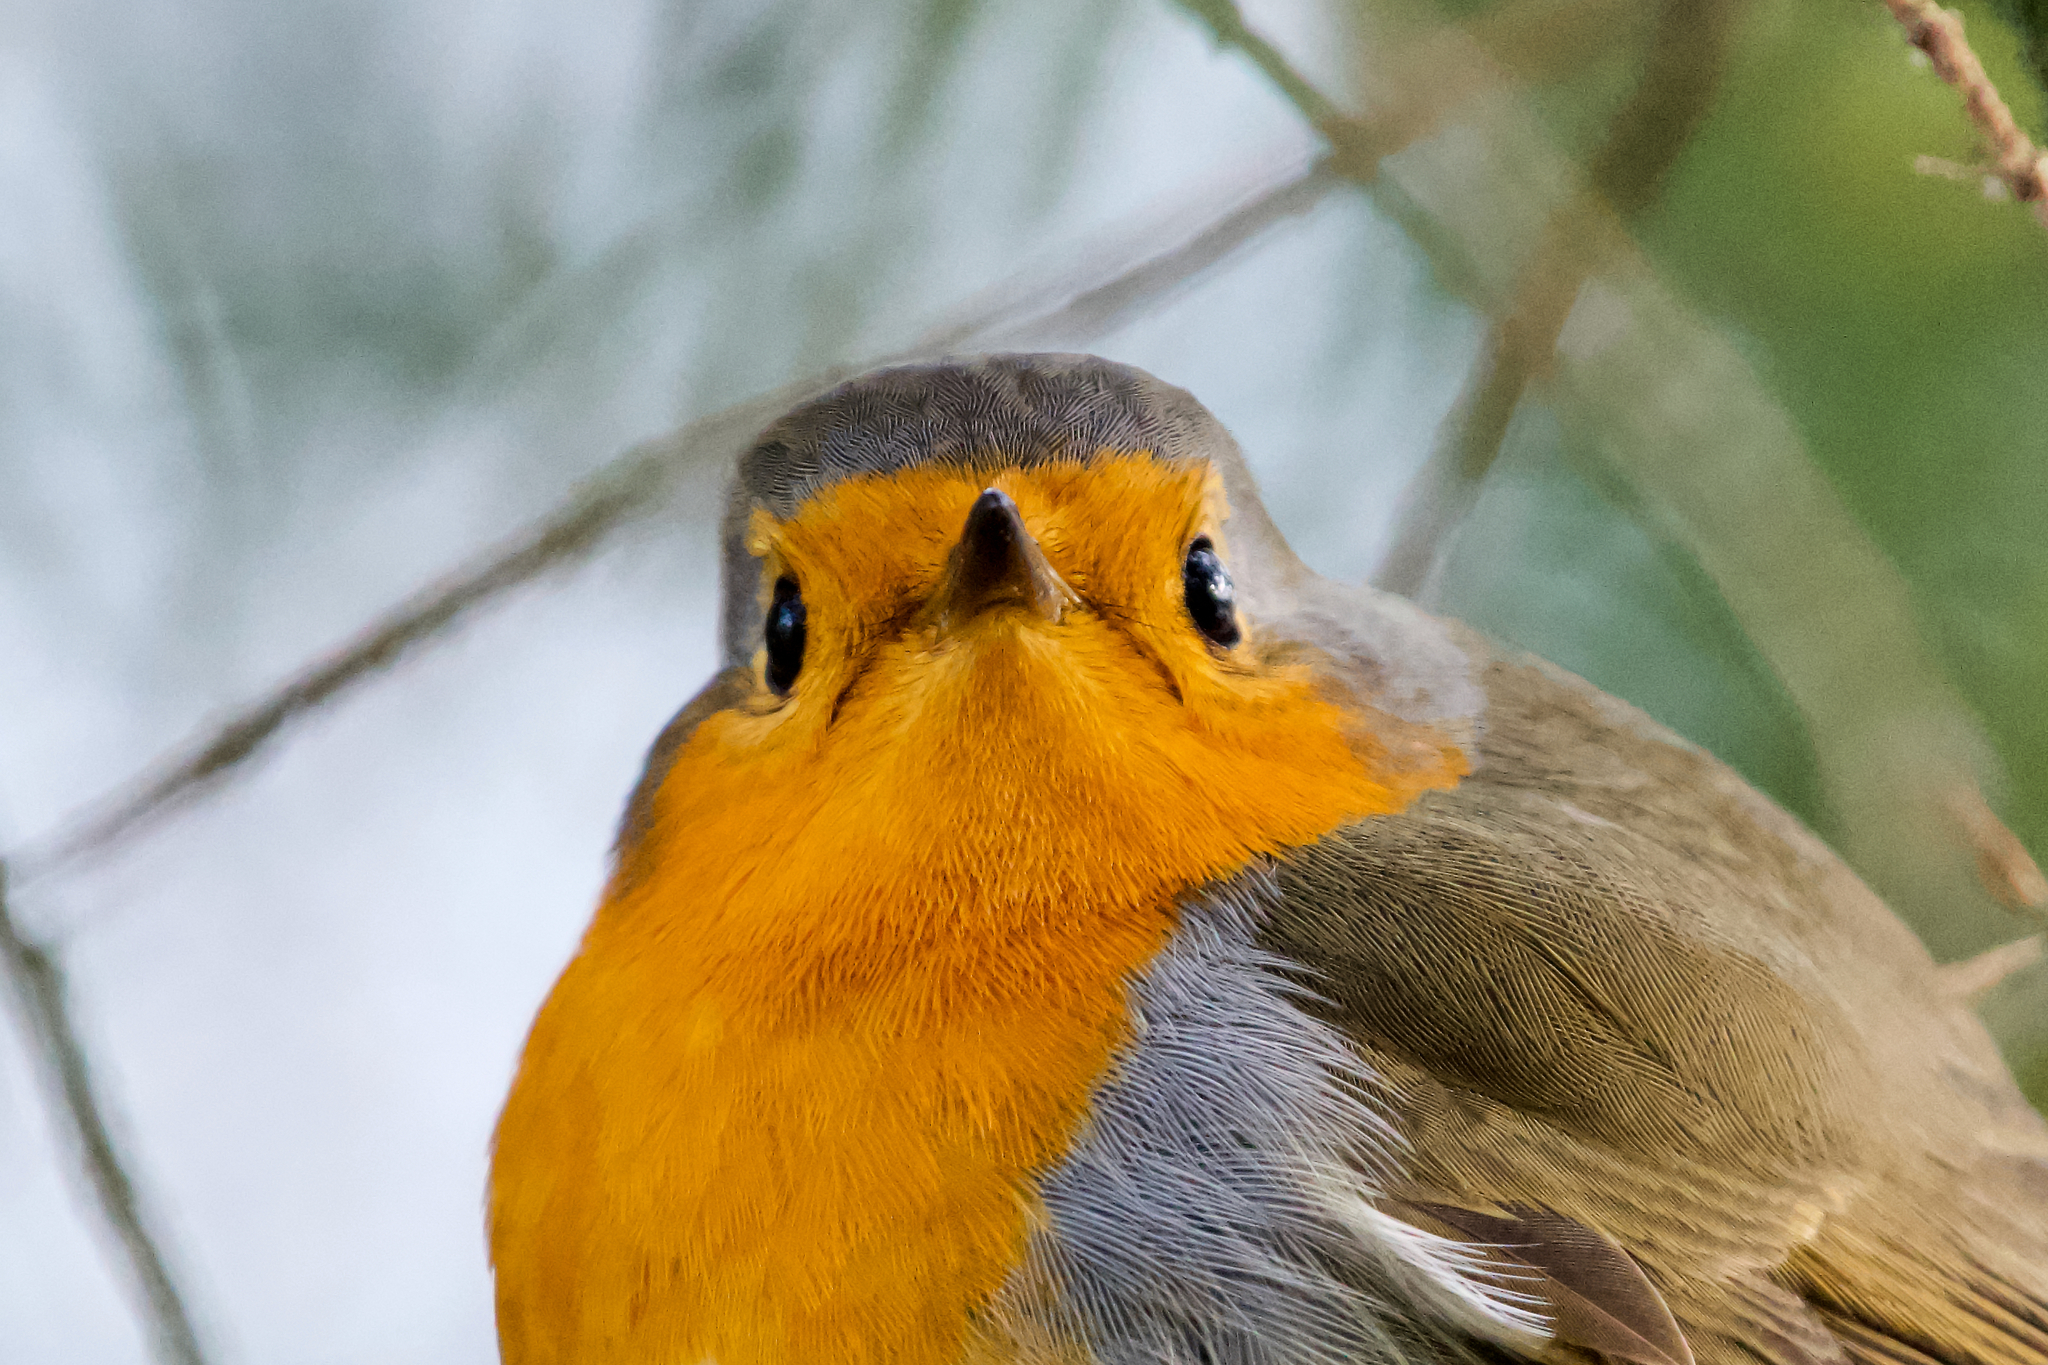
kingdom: Animalia
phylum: Chordata
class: Aves
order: Passeriformes
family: Muscicapidae
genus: Erithacus
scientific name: Erithacus rubecula
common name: European robin
